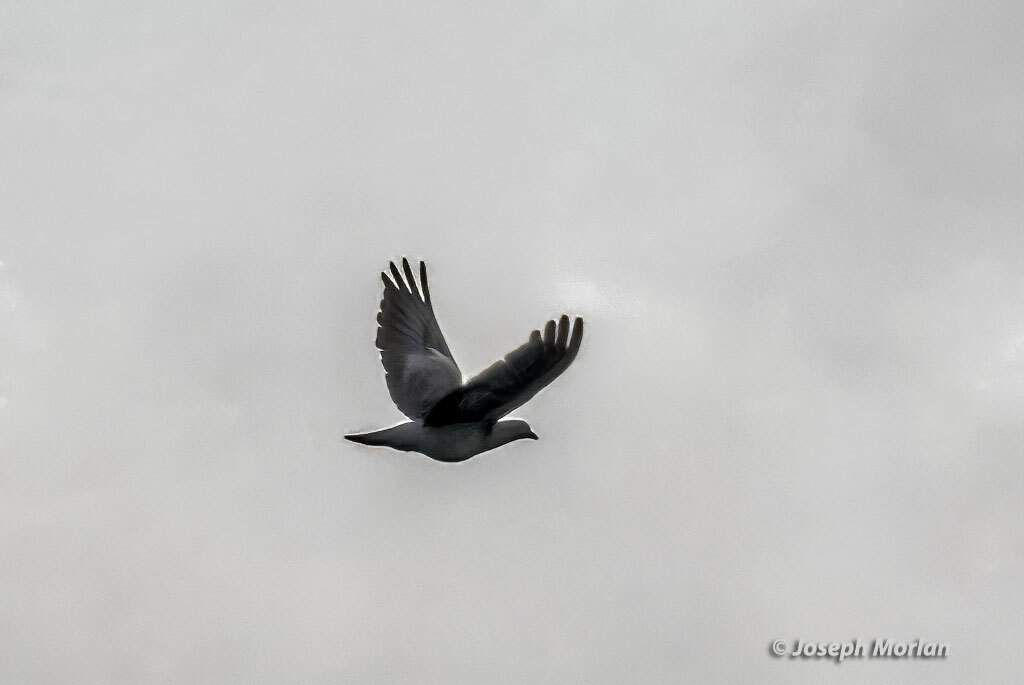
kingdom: Animalia
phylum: Chordata
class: Aves
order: Columbiformes
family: Columbidae
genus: Patagioenas
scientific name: Patagioenas picazuro
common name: Picazuro pigeon
